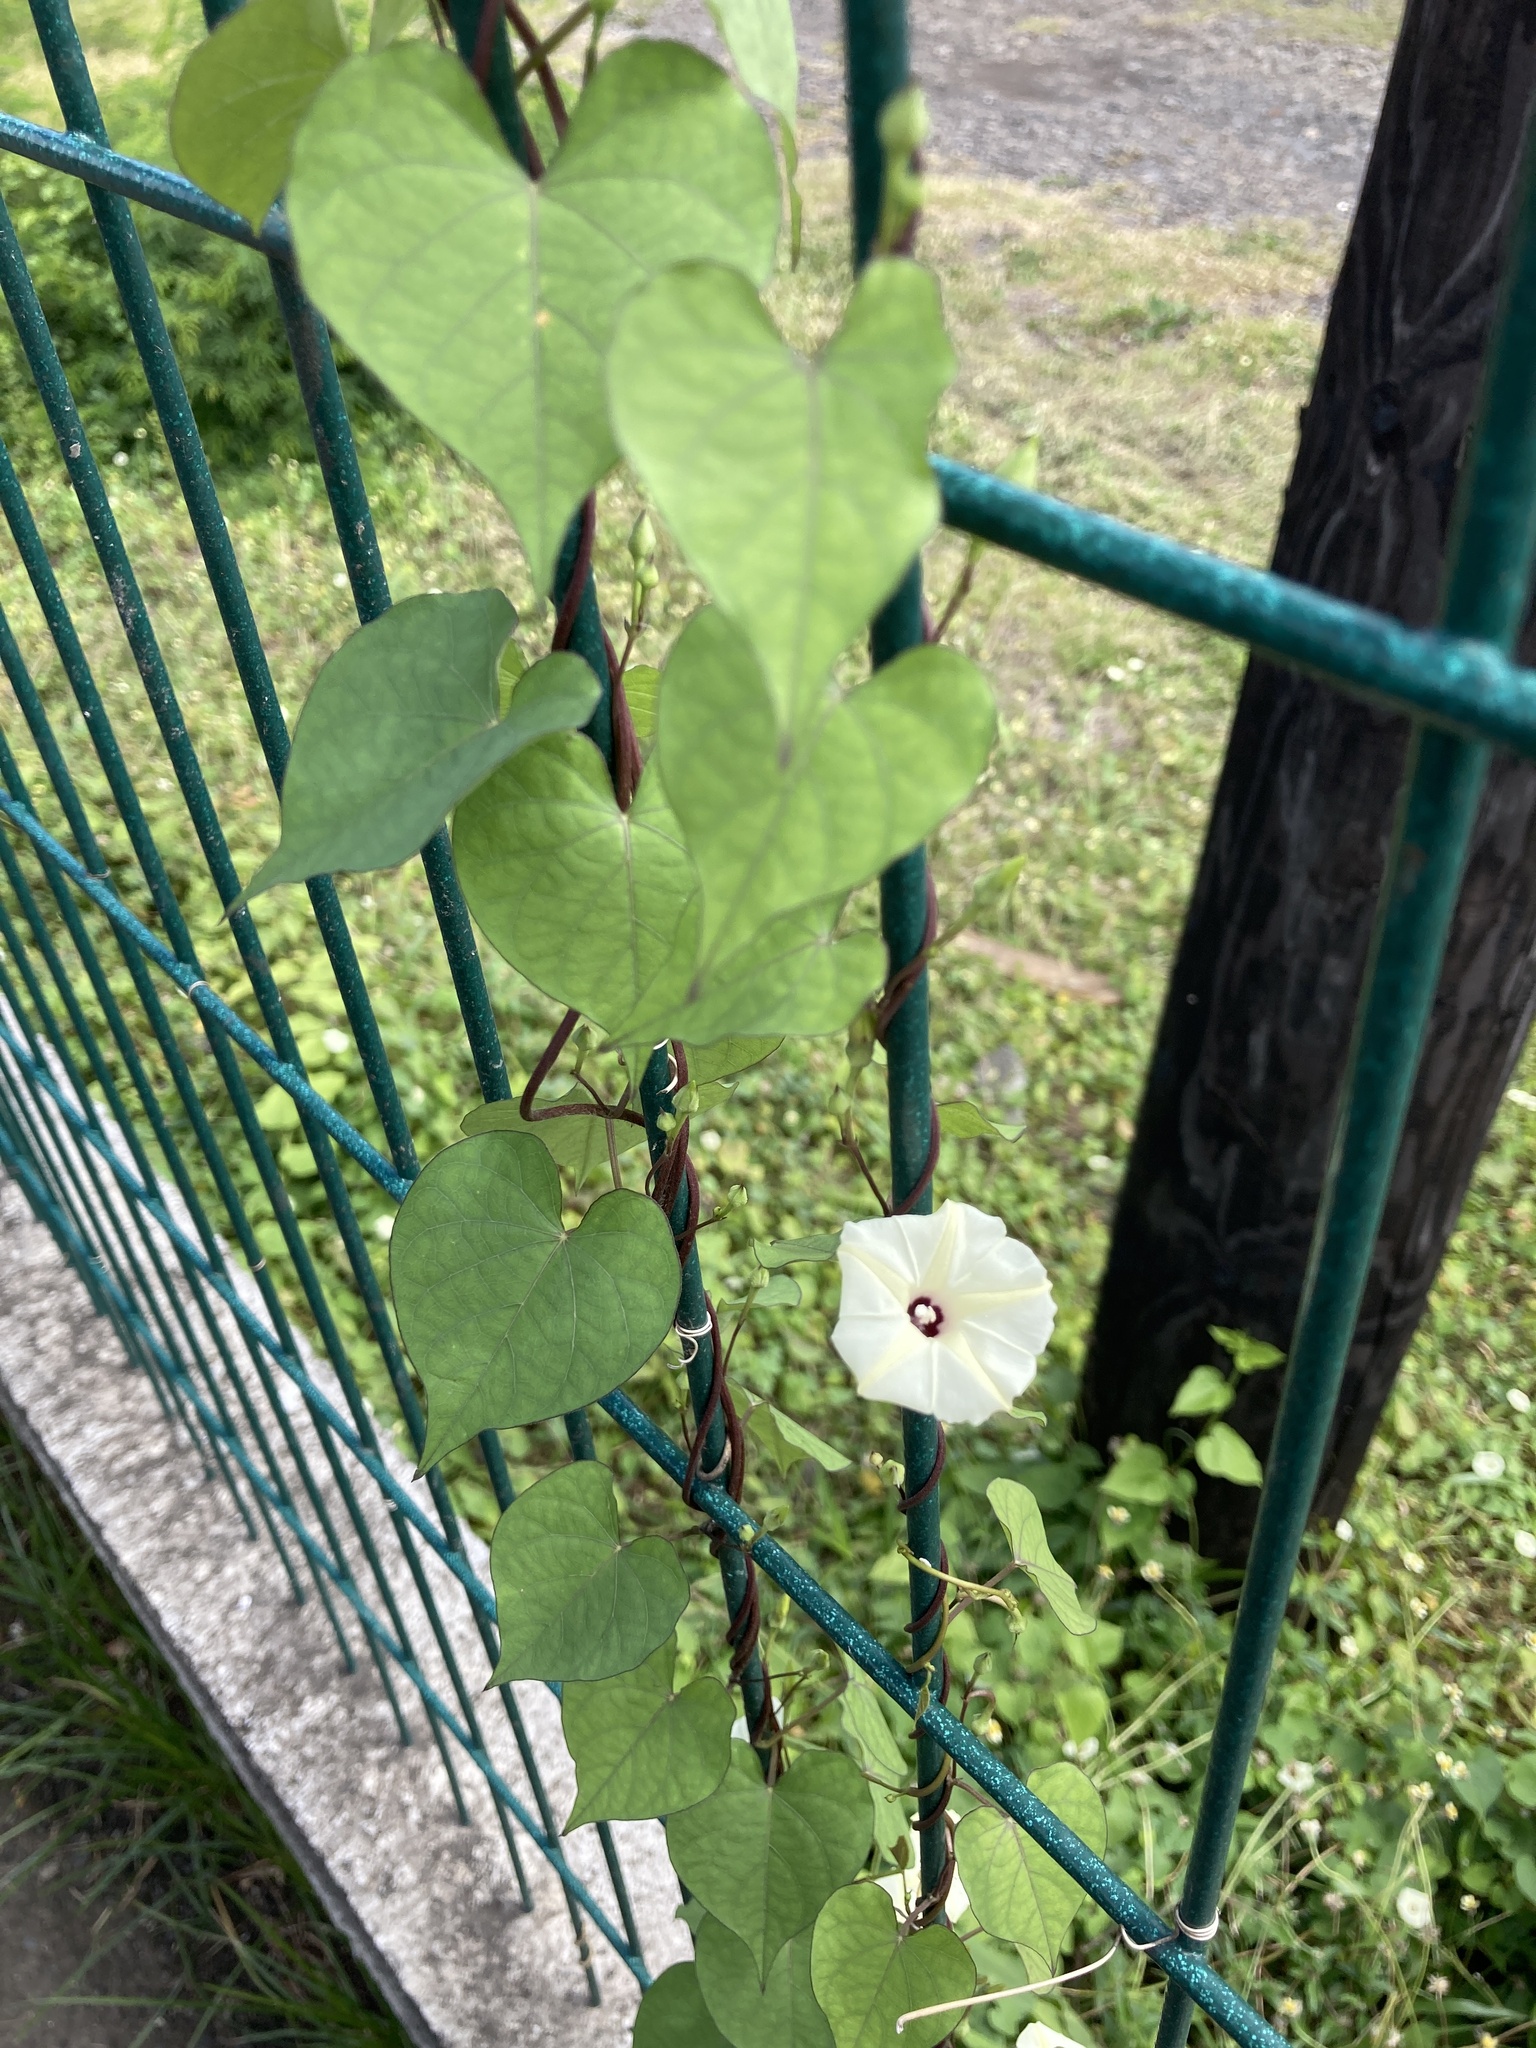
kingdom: Plantae
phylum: Tracheophyta
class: Magnoliopsida
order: Solanales
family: Convolvulaceae
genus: Ipomoea
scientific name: Ipomoea obscura
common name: Obscure morning-glory
